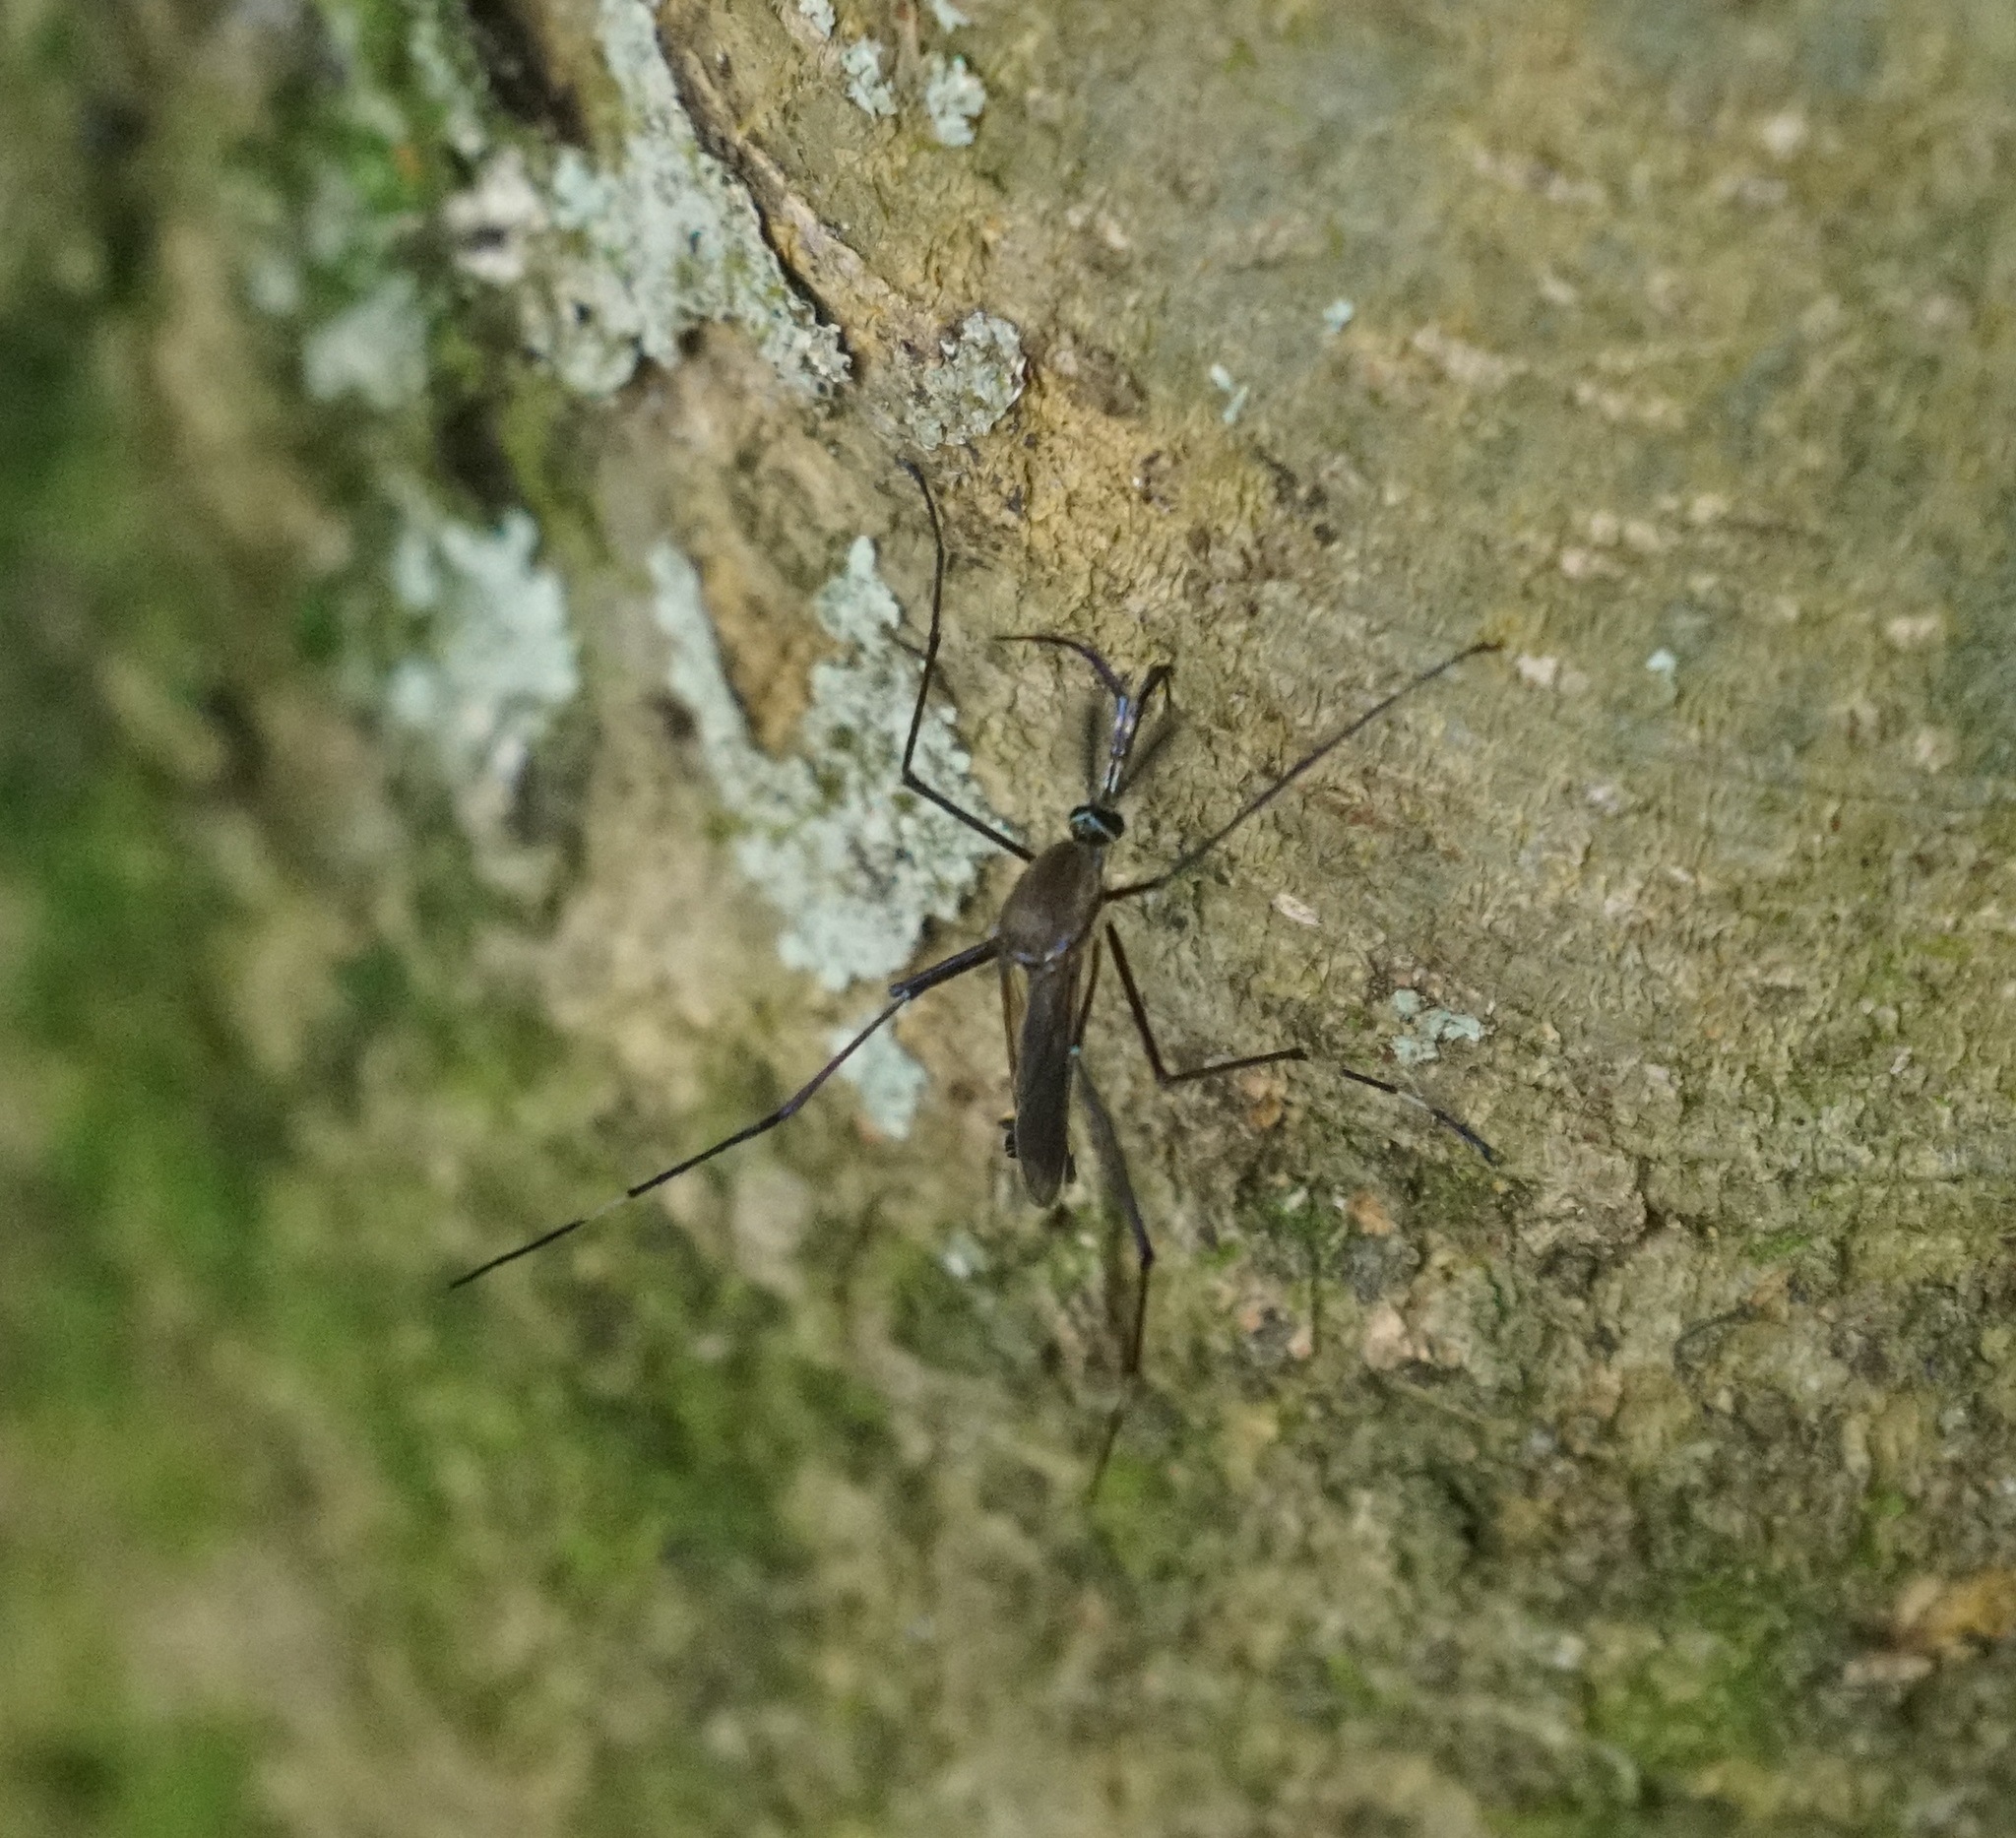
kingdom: Animalia
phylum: Arthropoda
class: Insecta
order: Diptera
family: Culicidae
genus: Toxorhynchites
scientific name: Toxorhynchites speciosus
